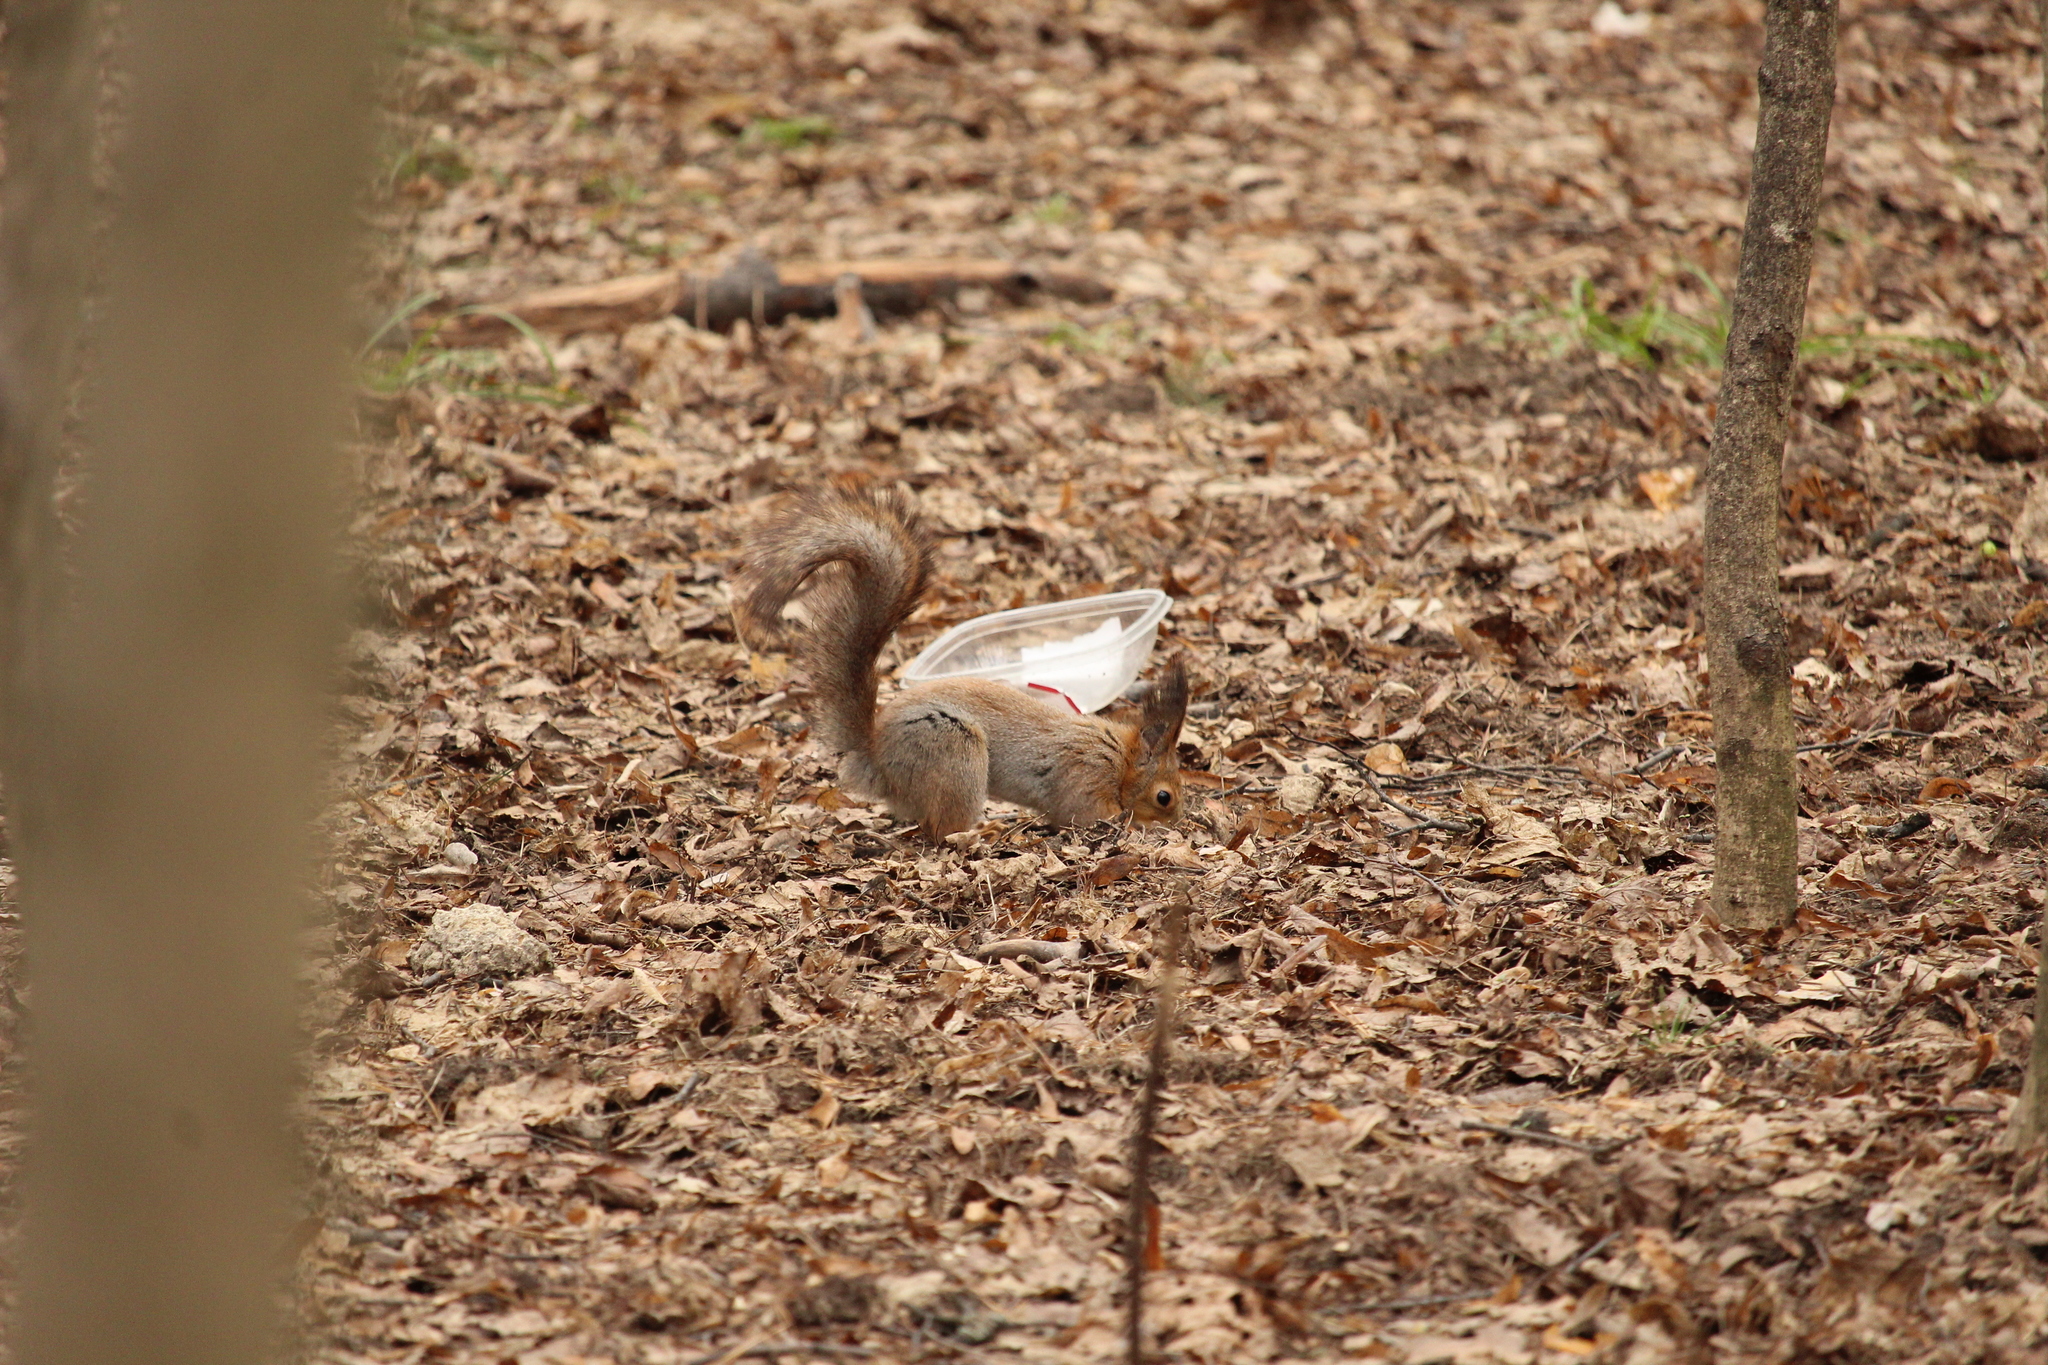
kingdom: Animalia
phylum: Chordata
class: Mammalia
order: Rodentia
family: Sciuridae
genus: Sciurus
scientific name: Sciurus vulgaris
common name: Eurasian red squirrel
